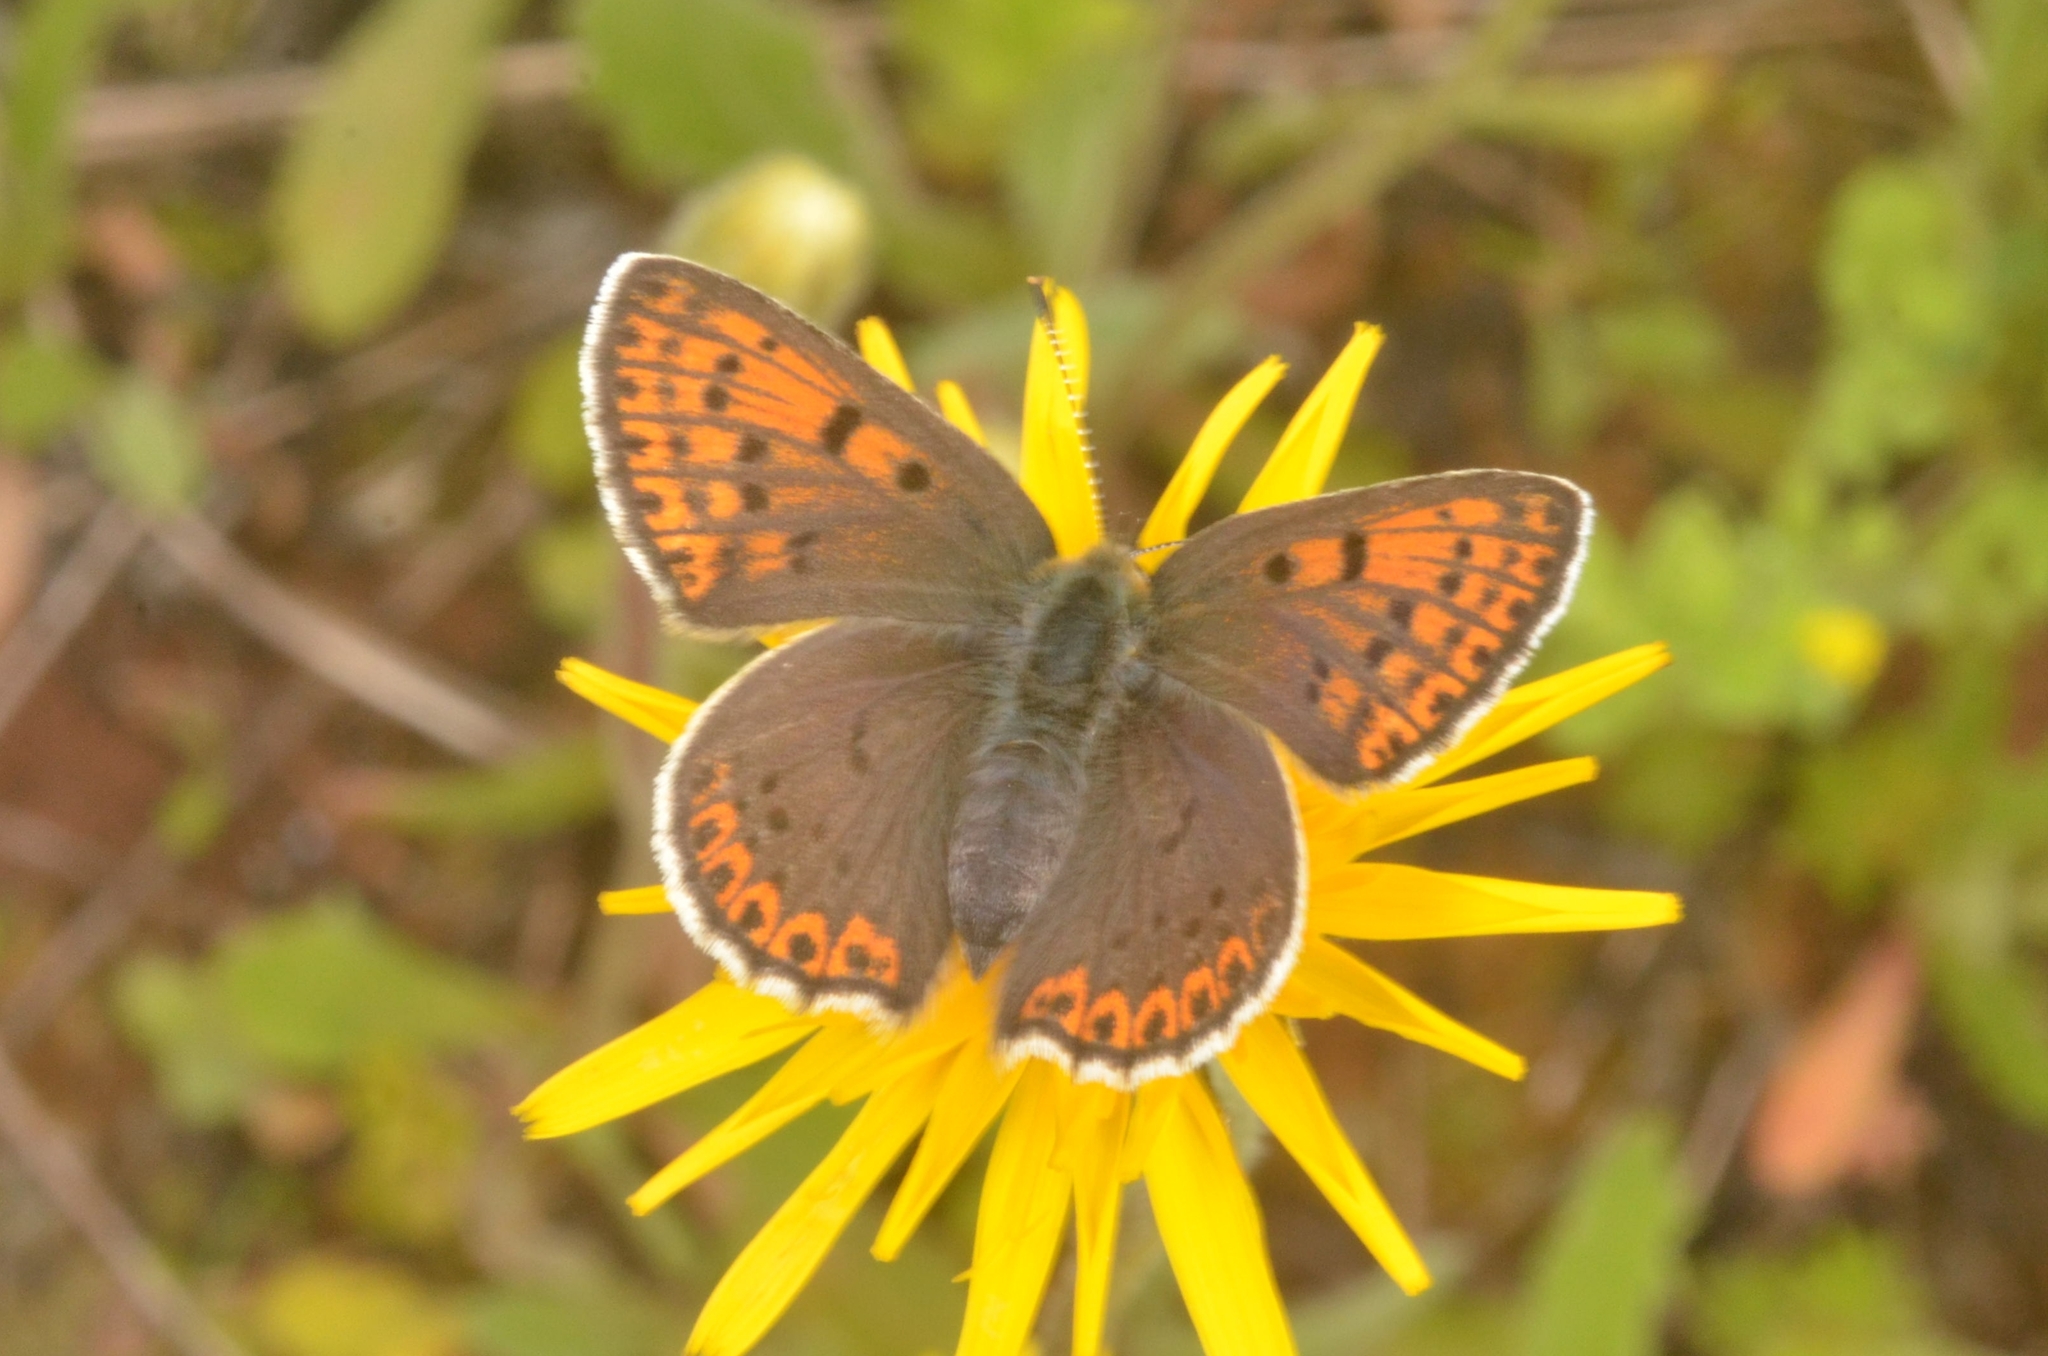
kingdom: Animalia
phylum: Arthropoda
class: Insecta
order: Lepidoptera
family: Lycaenidae
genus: Loweia
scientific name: Loweia tityrus
